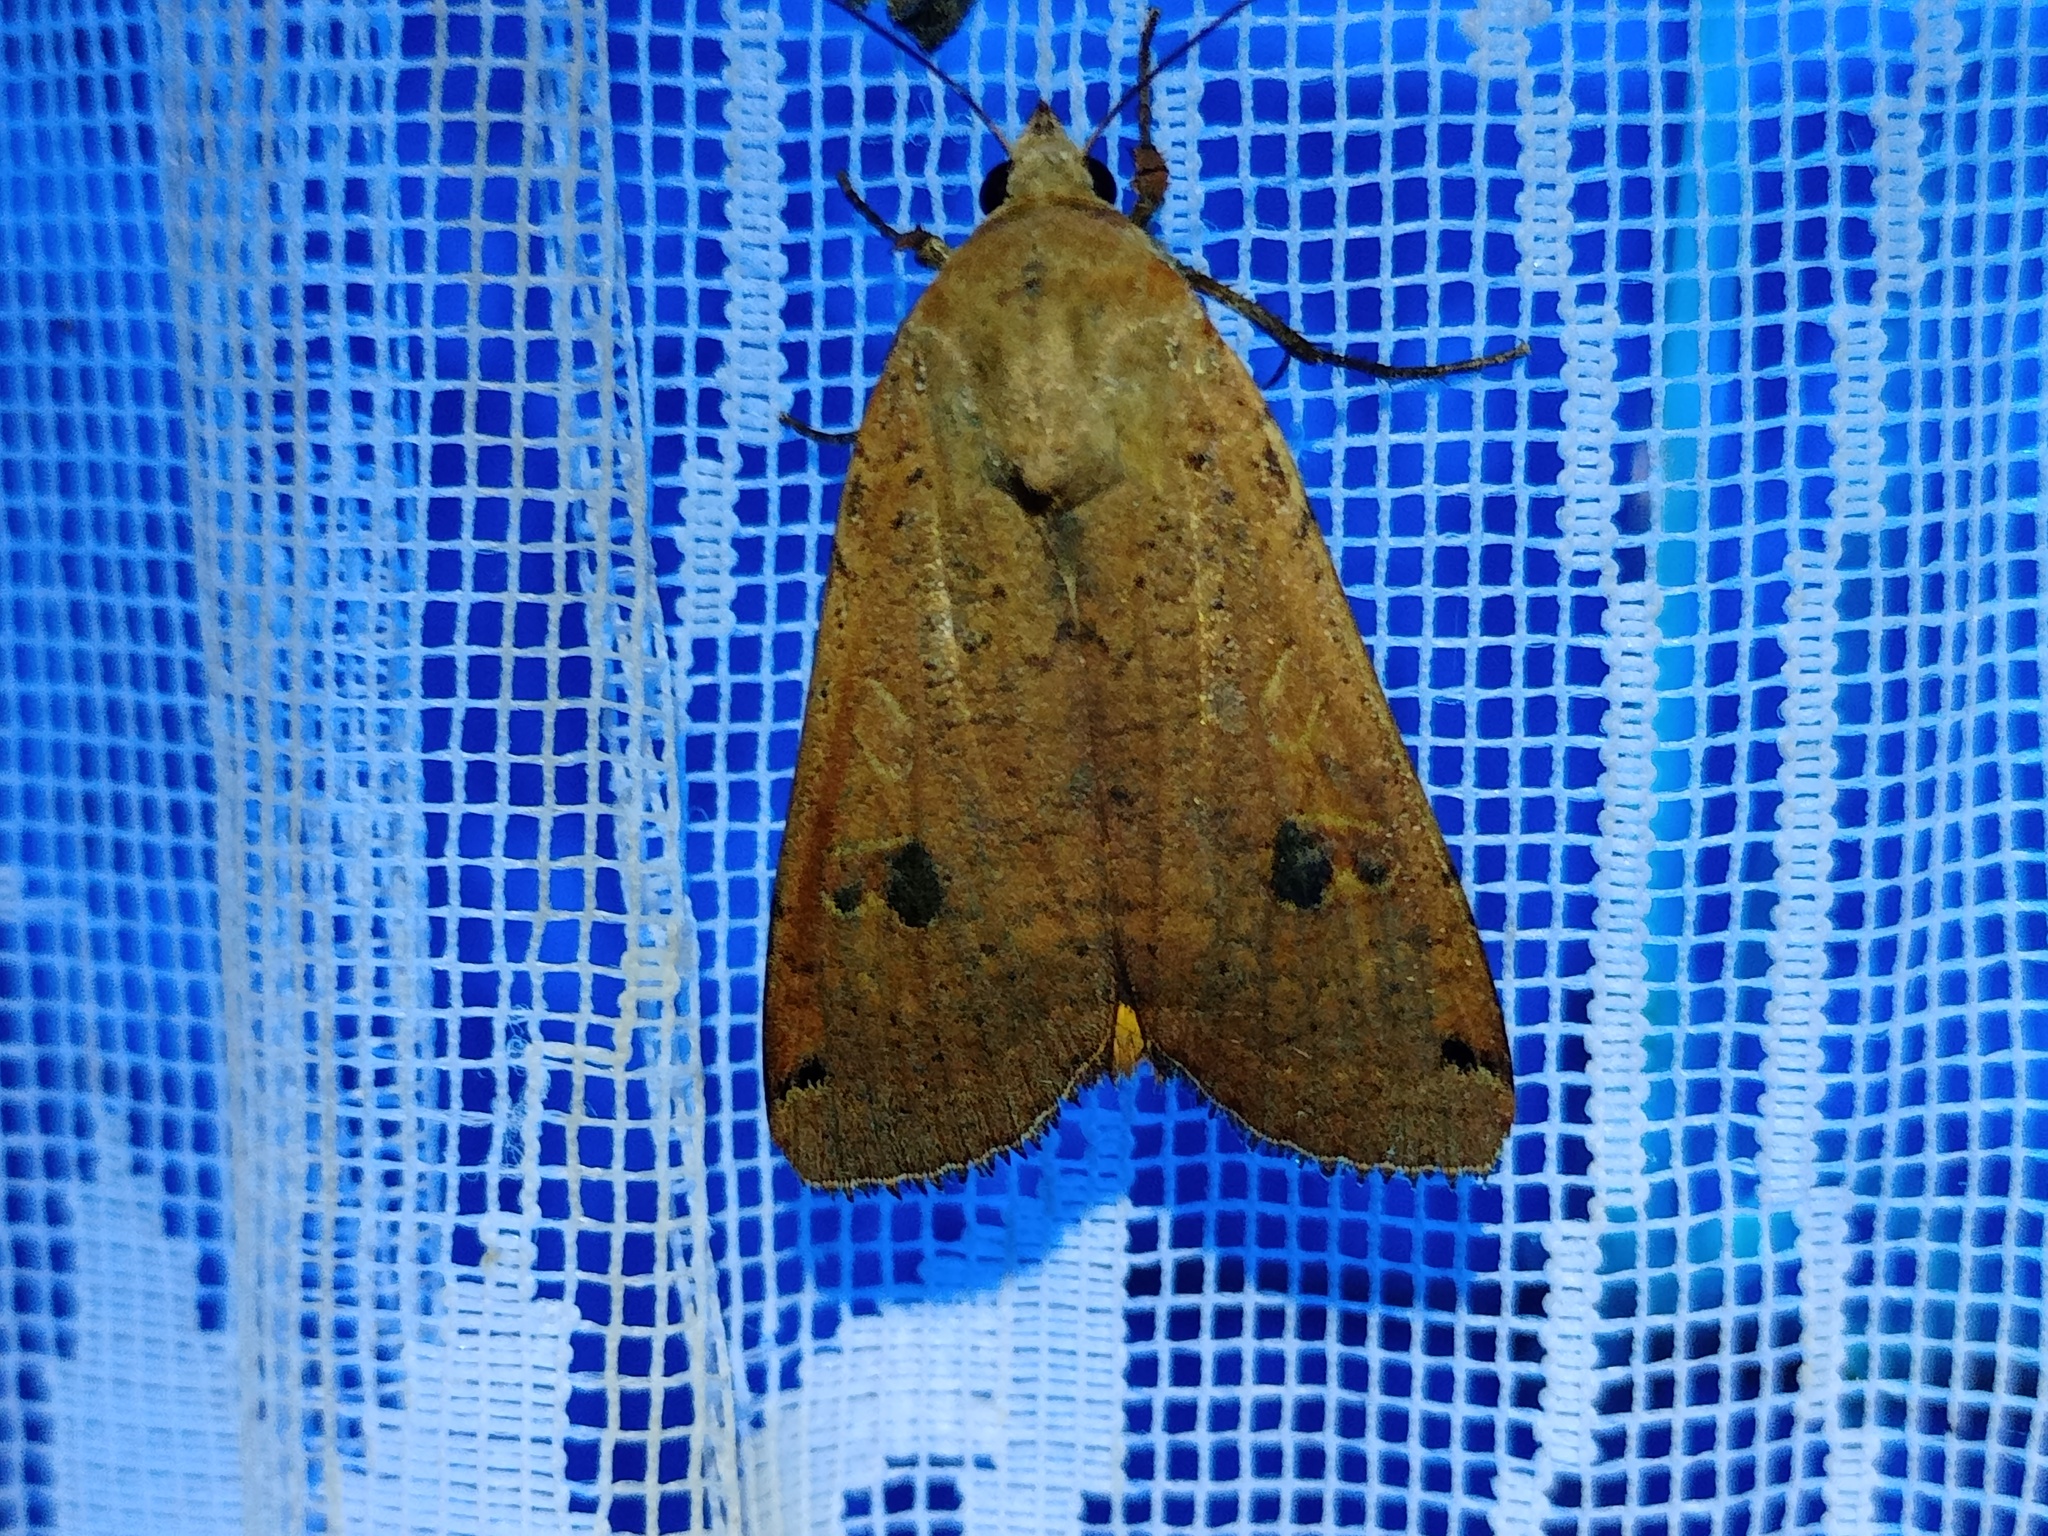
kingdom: Animalia
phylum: Arthropoda
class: Insecta
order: Lepidoptera
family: Noctuidae
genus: Noctua
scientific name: Noctua pronuba
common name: Large yellow underwing
